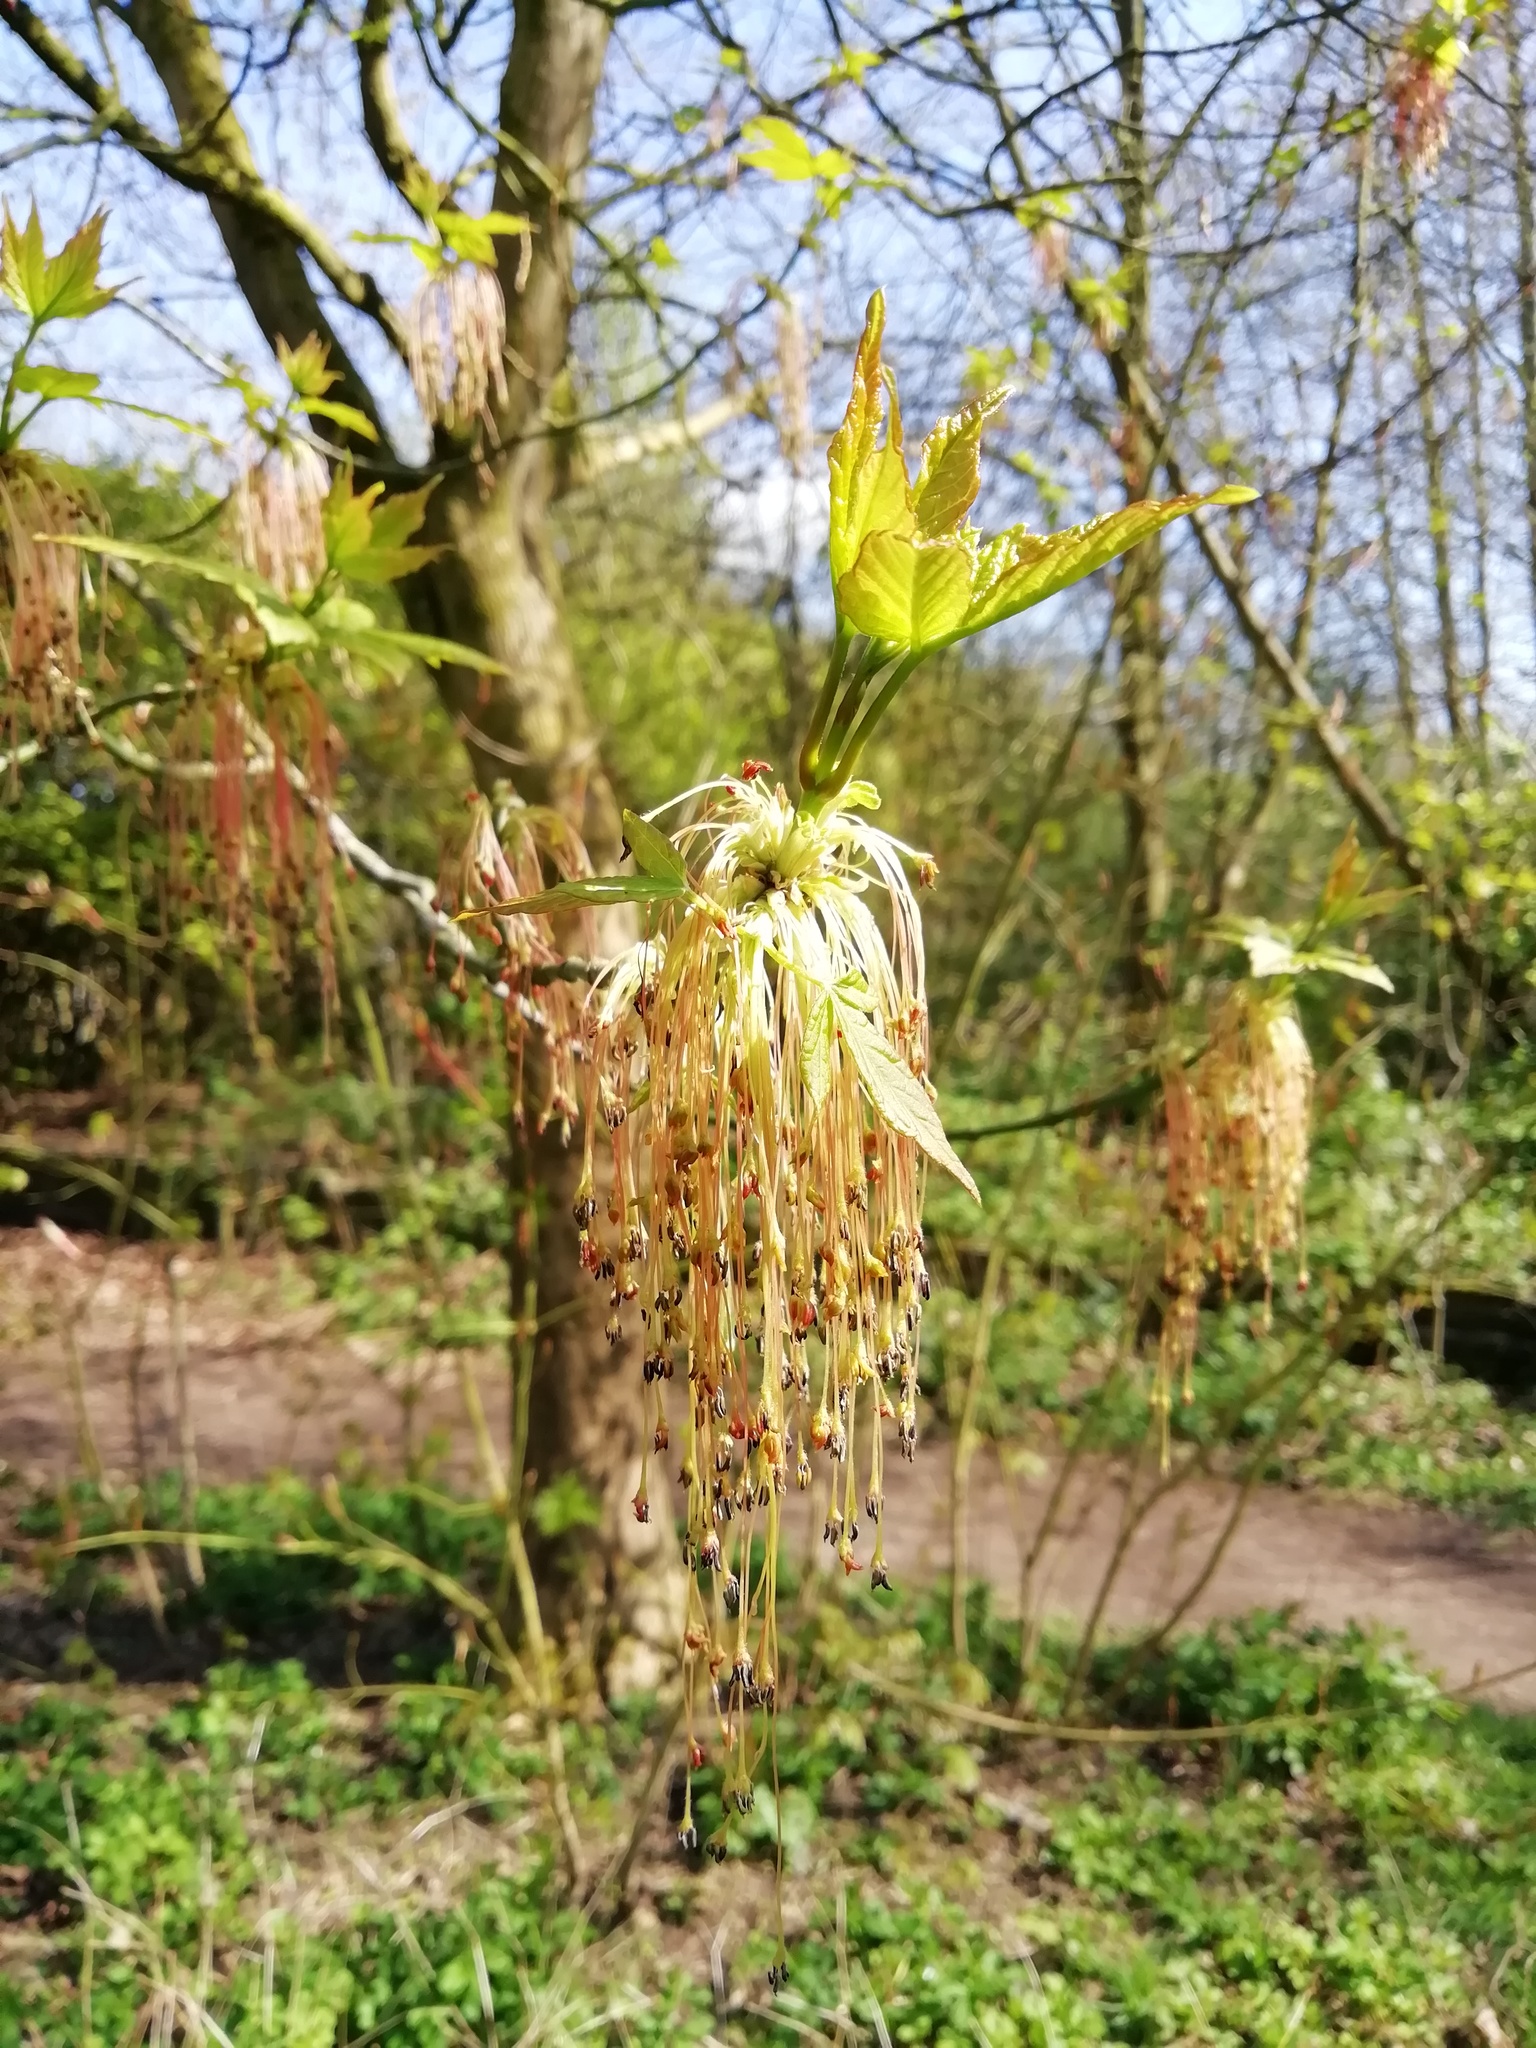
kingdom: Plantae
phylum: Tracheophyta
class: Magnoliopsida
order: Sapindales
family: Sapindaceae
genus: Acer
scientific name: Acer negundo
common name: Ashleaf maple
